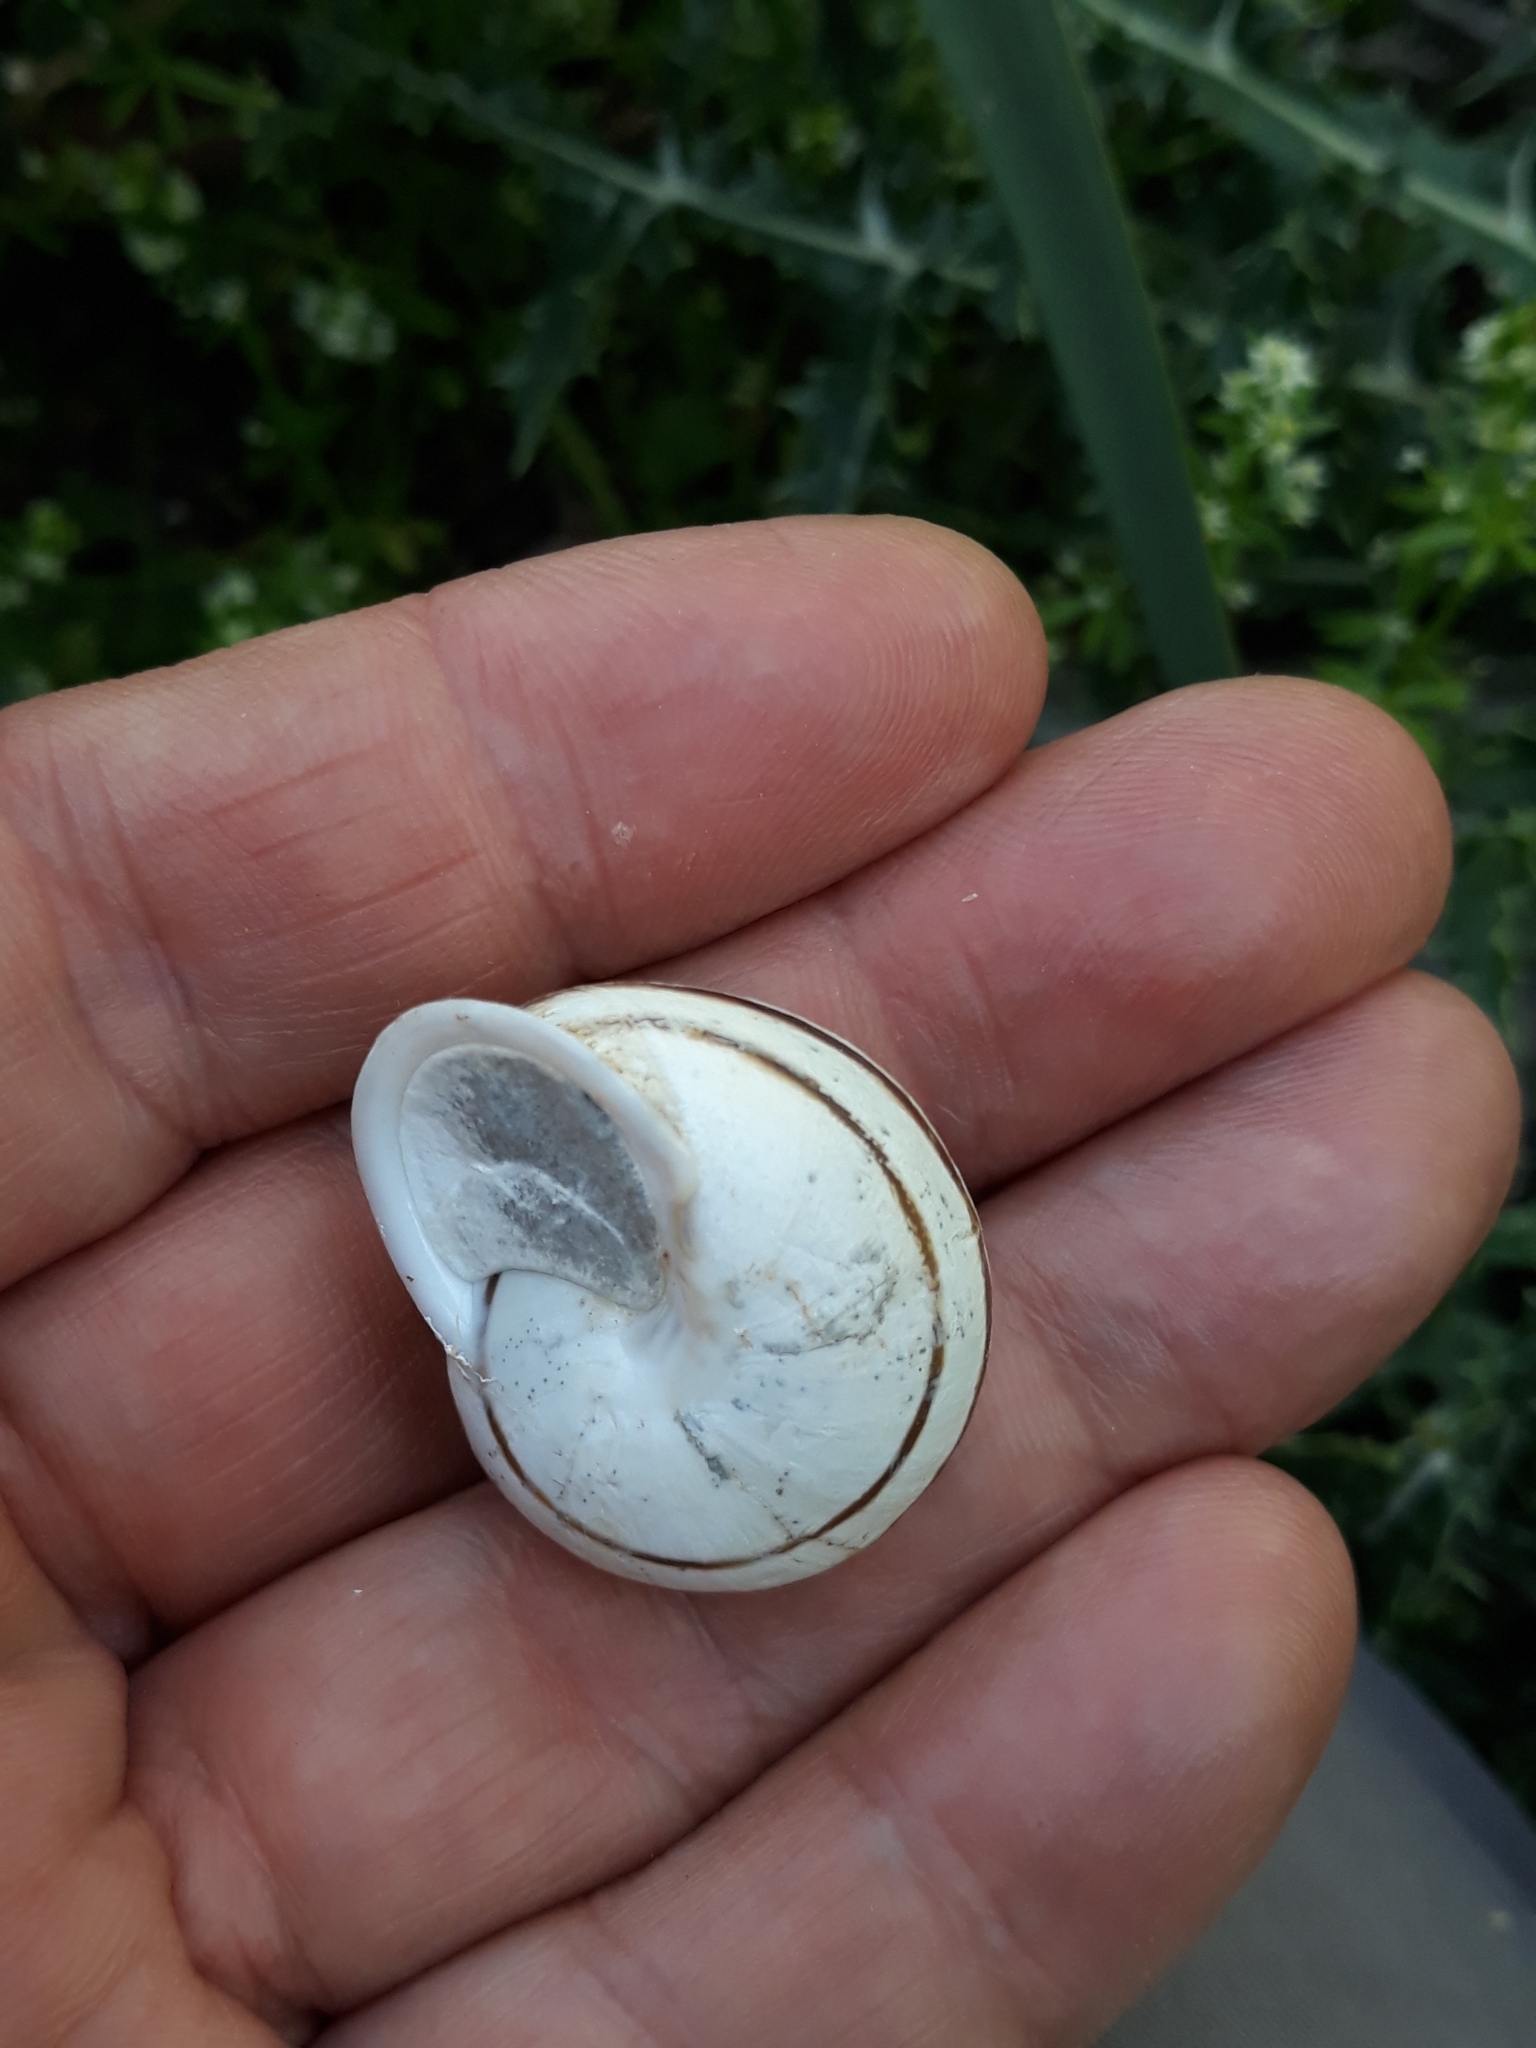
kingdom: Animalia
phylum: Mollusca
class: Gastropoda
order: Stylommatophora
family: Helicidae
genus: Eobania
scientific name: Eobania vermiculata
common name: Chocolateband snail
